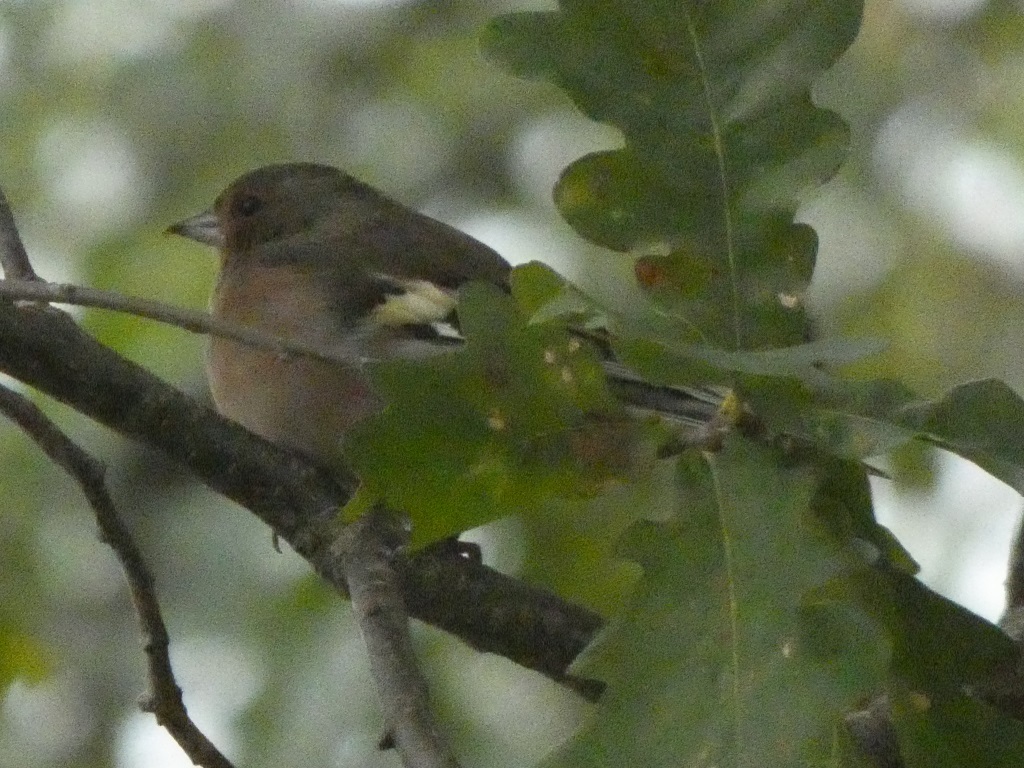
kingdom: Animalia
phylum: Chordata
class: Aves
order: Passeriformes
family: Fringillidae
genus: Fringilla
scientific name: Fringilla coelebs
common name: Common chaffinch
